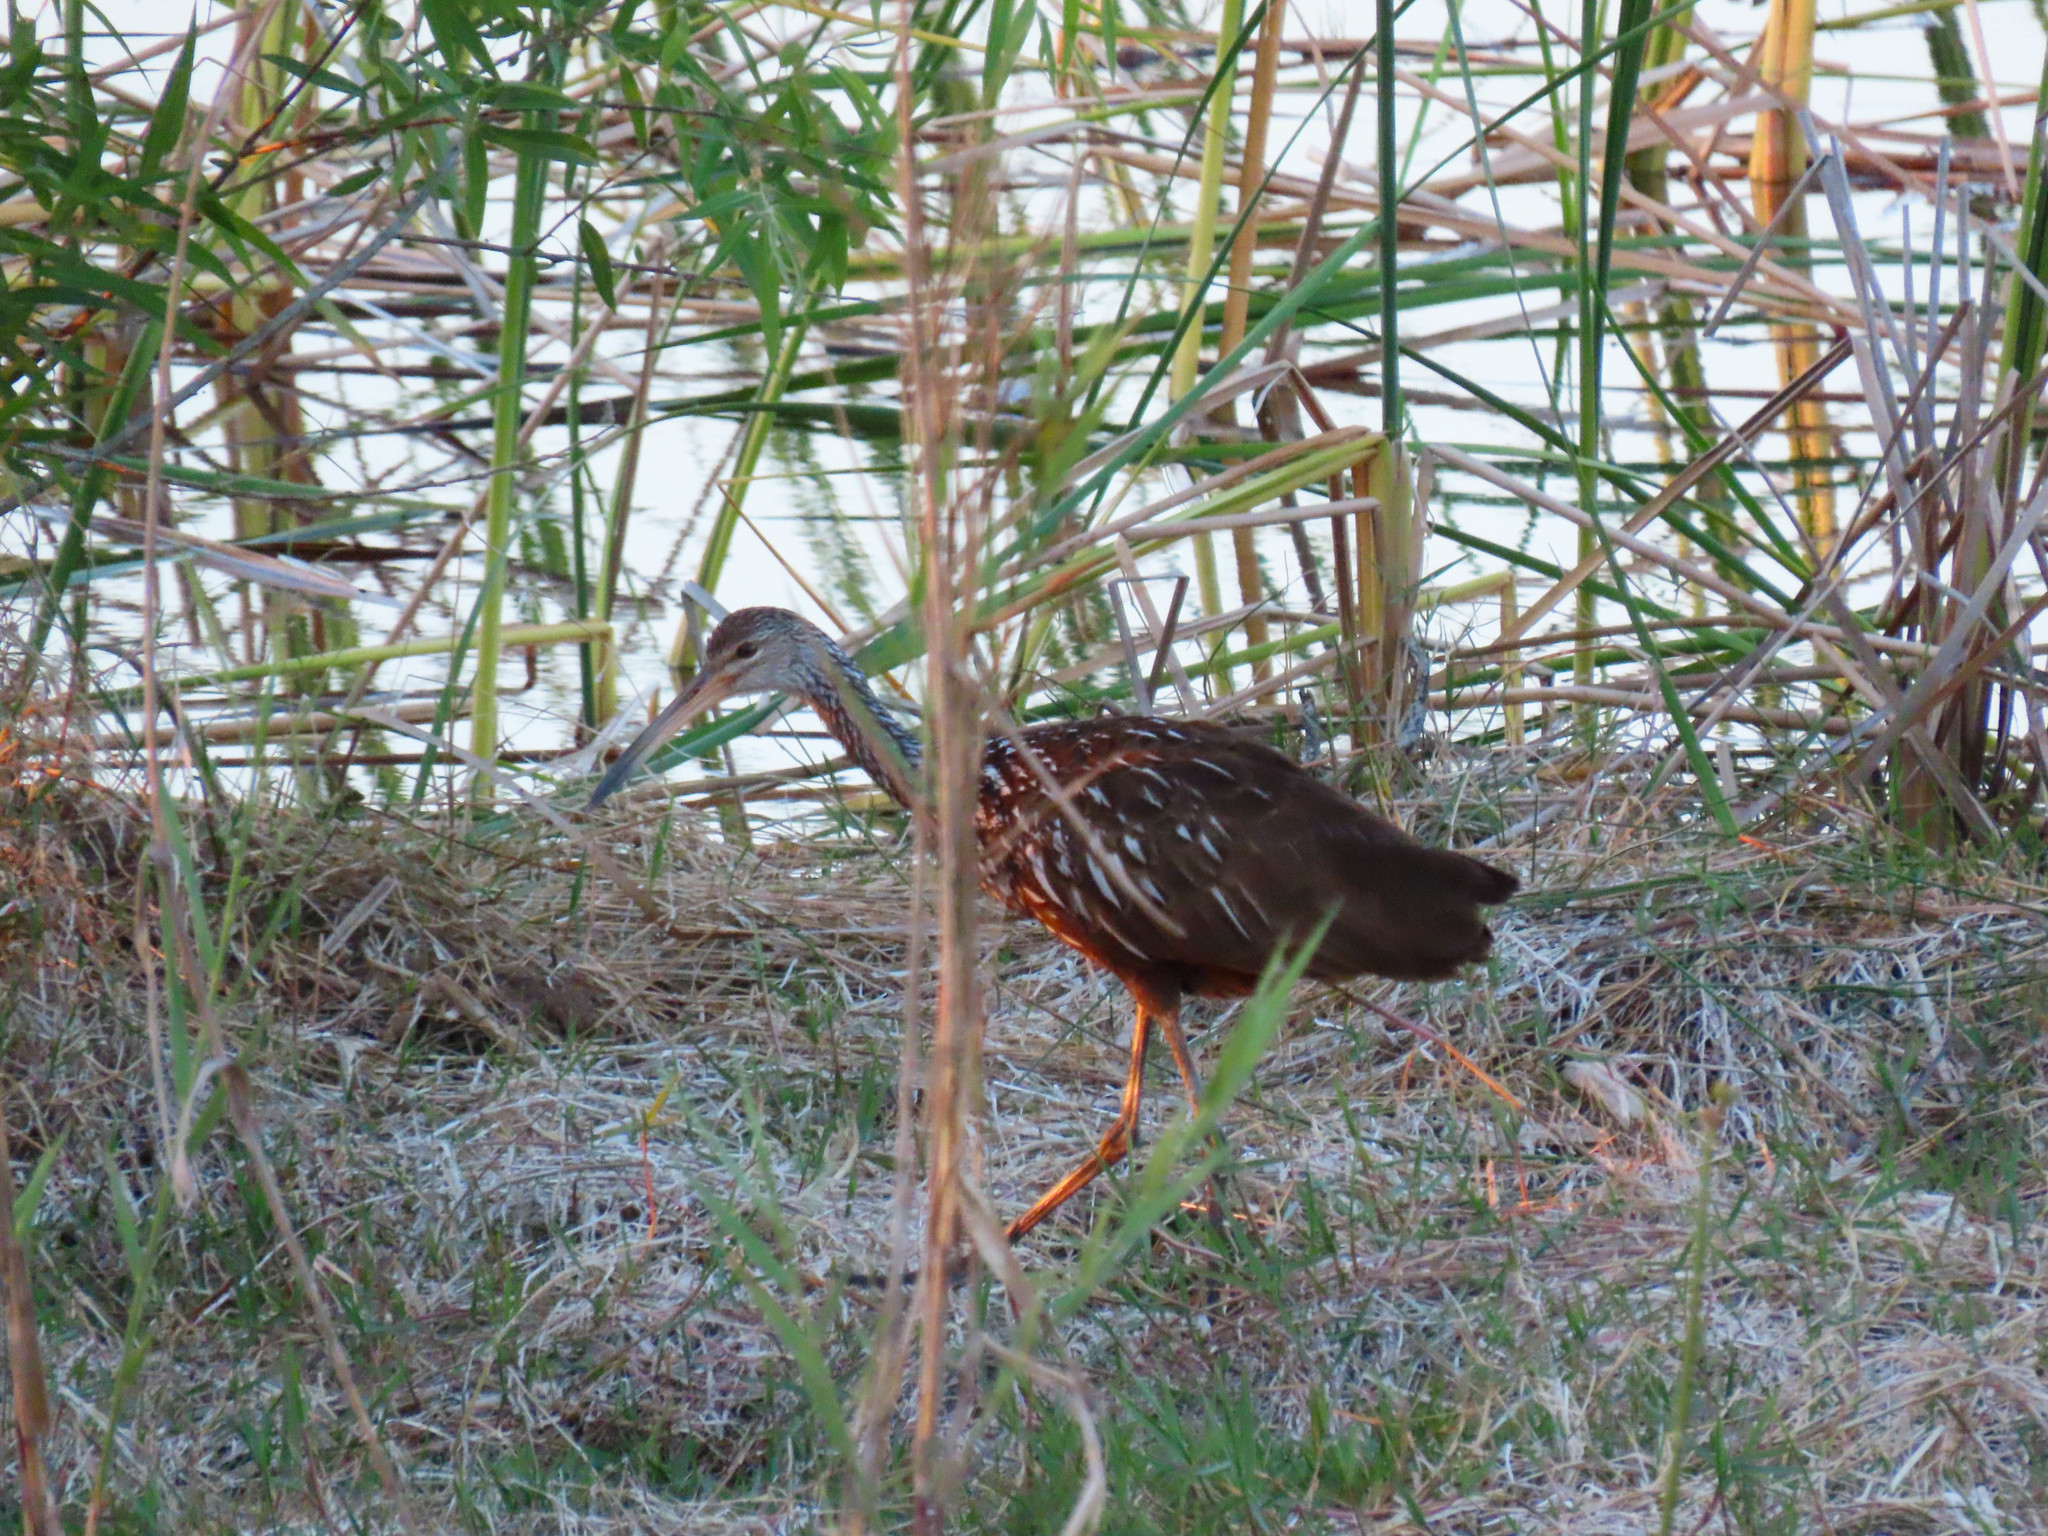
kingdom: Animalia
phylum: Chordata
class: Aves
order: Gruiformes
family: Aramidae
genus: Aramus
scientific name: Aramus guarauna
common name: Limpkin
